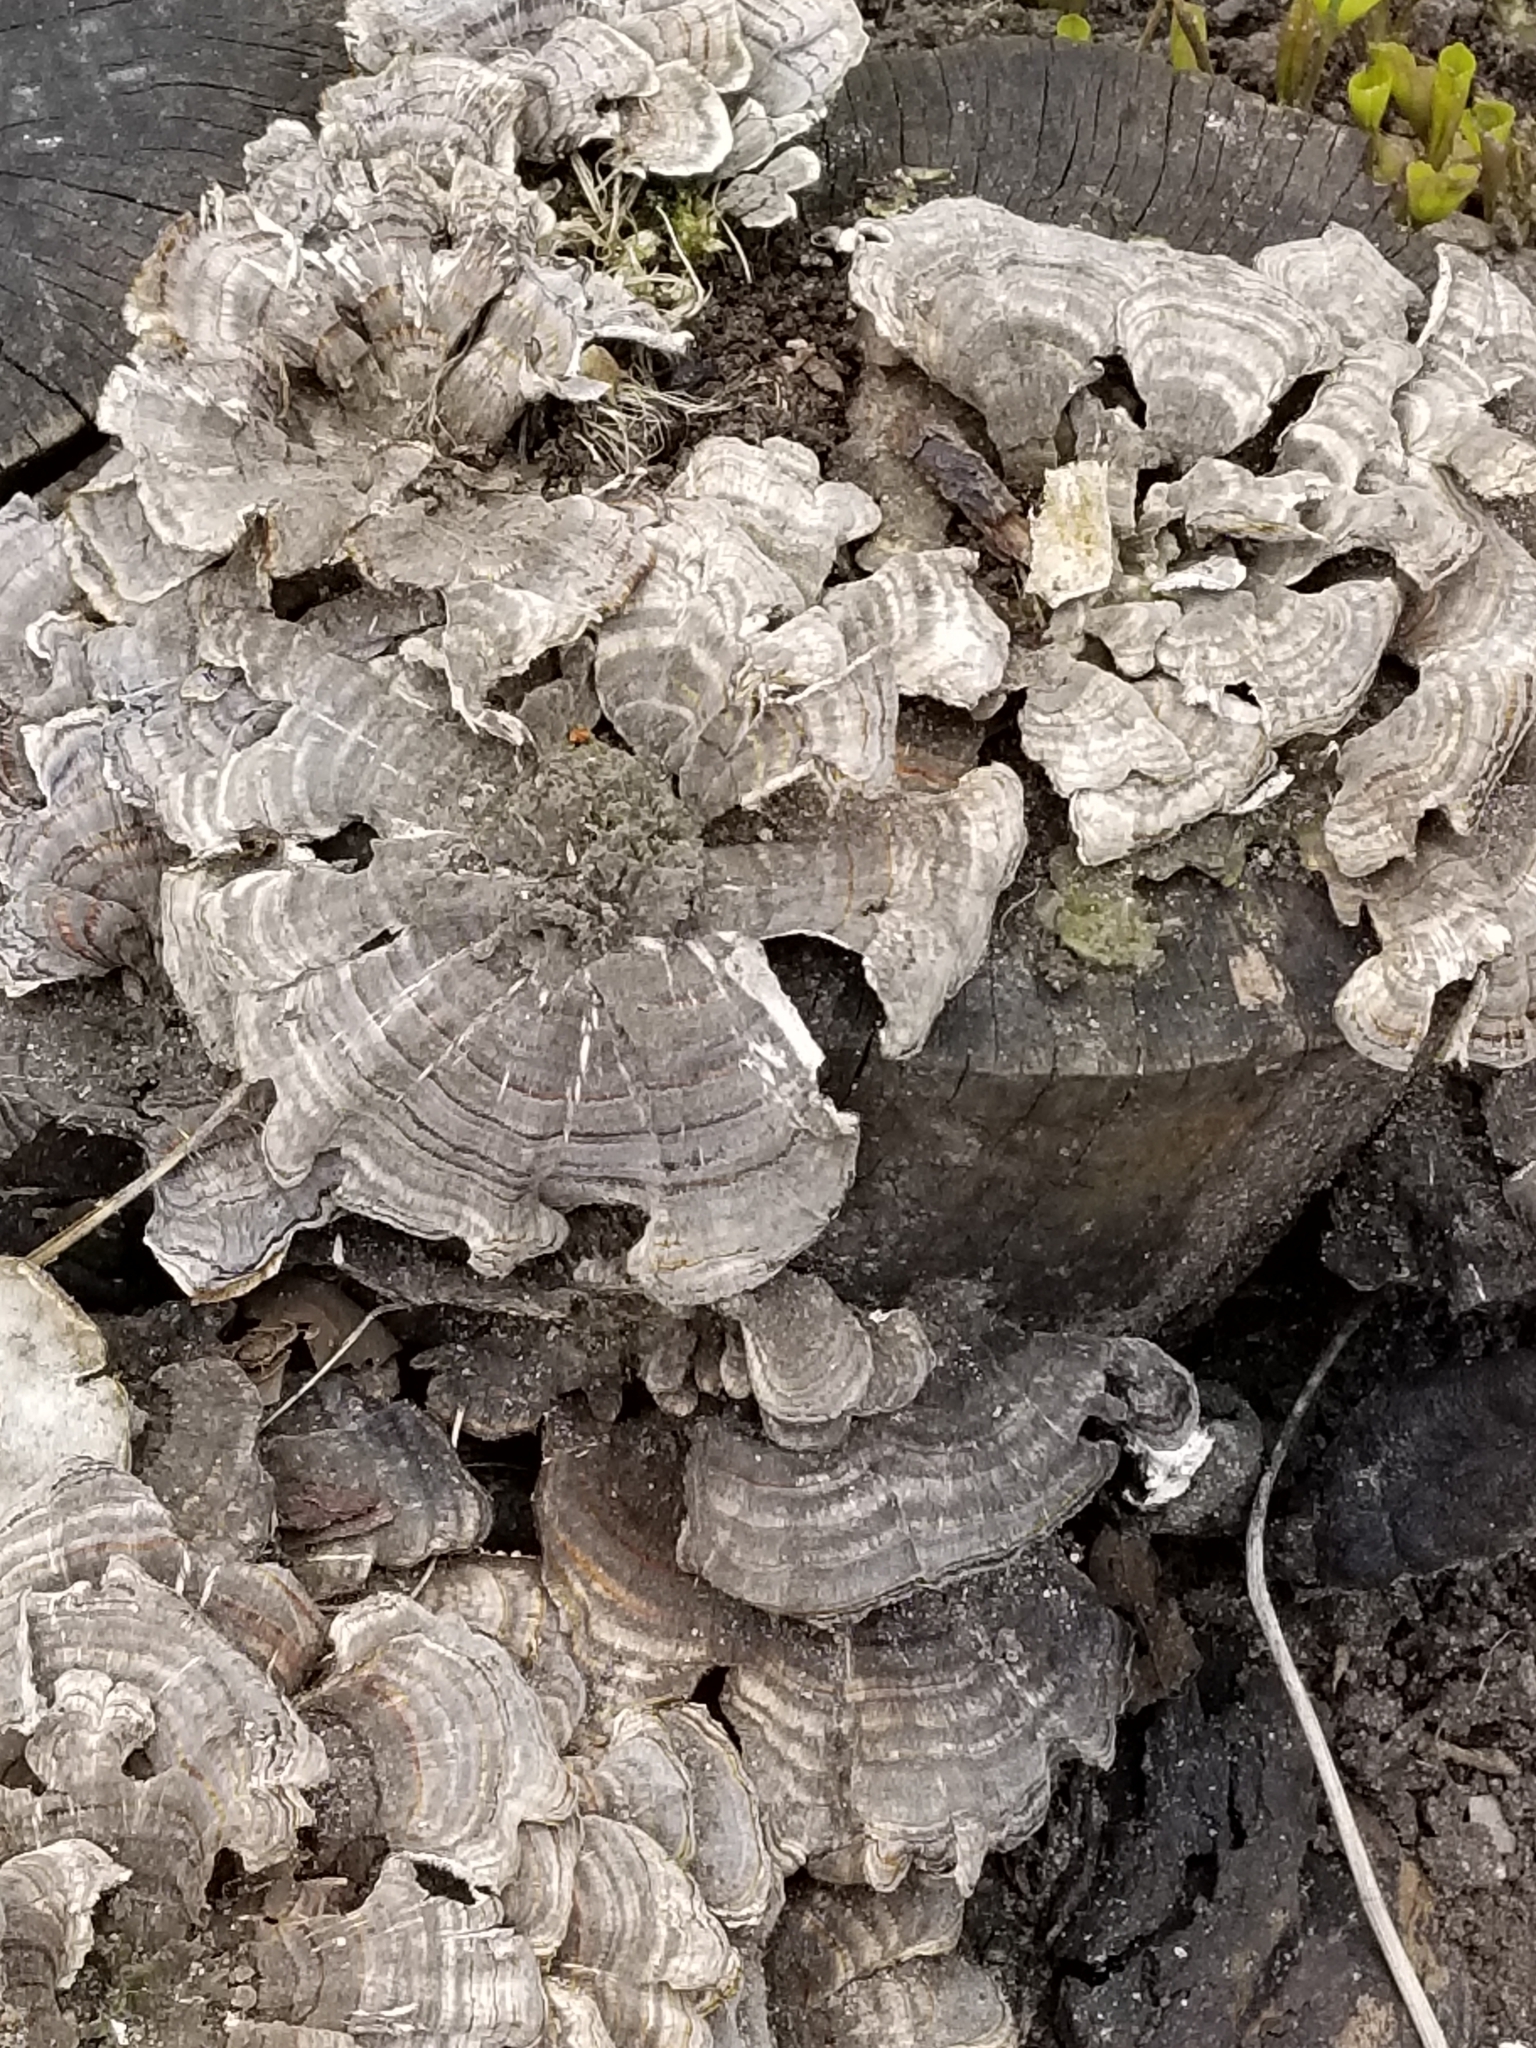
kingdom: Fungi
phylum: Basidiomycota
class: Agaricomycetes
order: Polyporales
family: Polyporaceae
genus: Trametes
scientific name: Trametes versicolor
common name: Turkeytail
